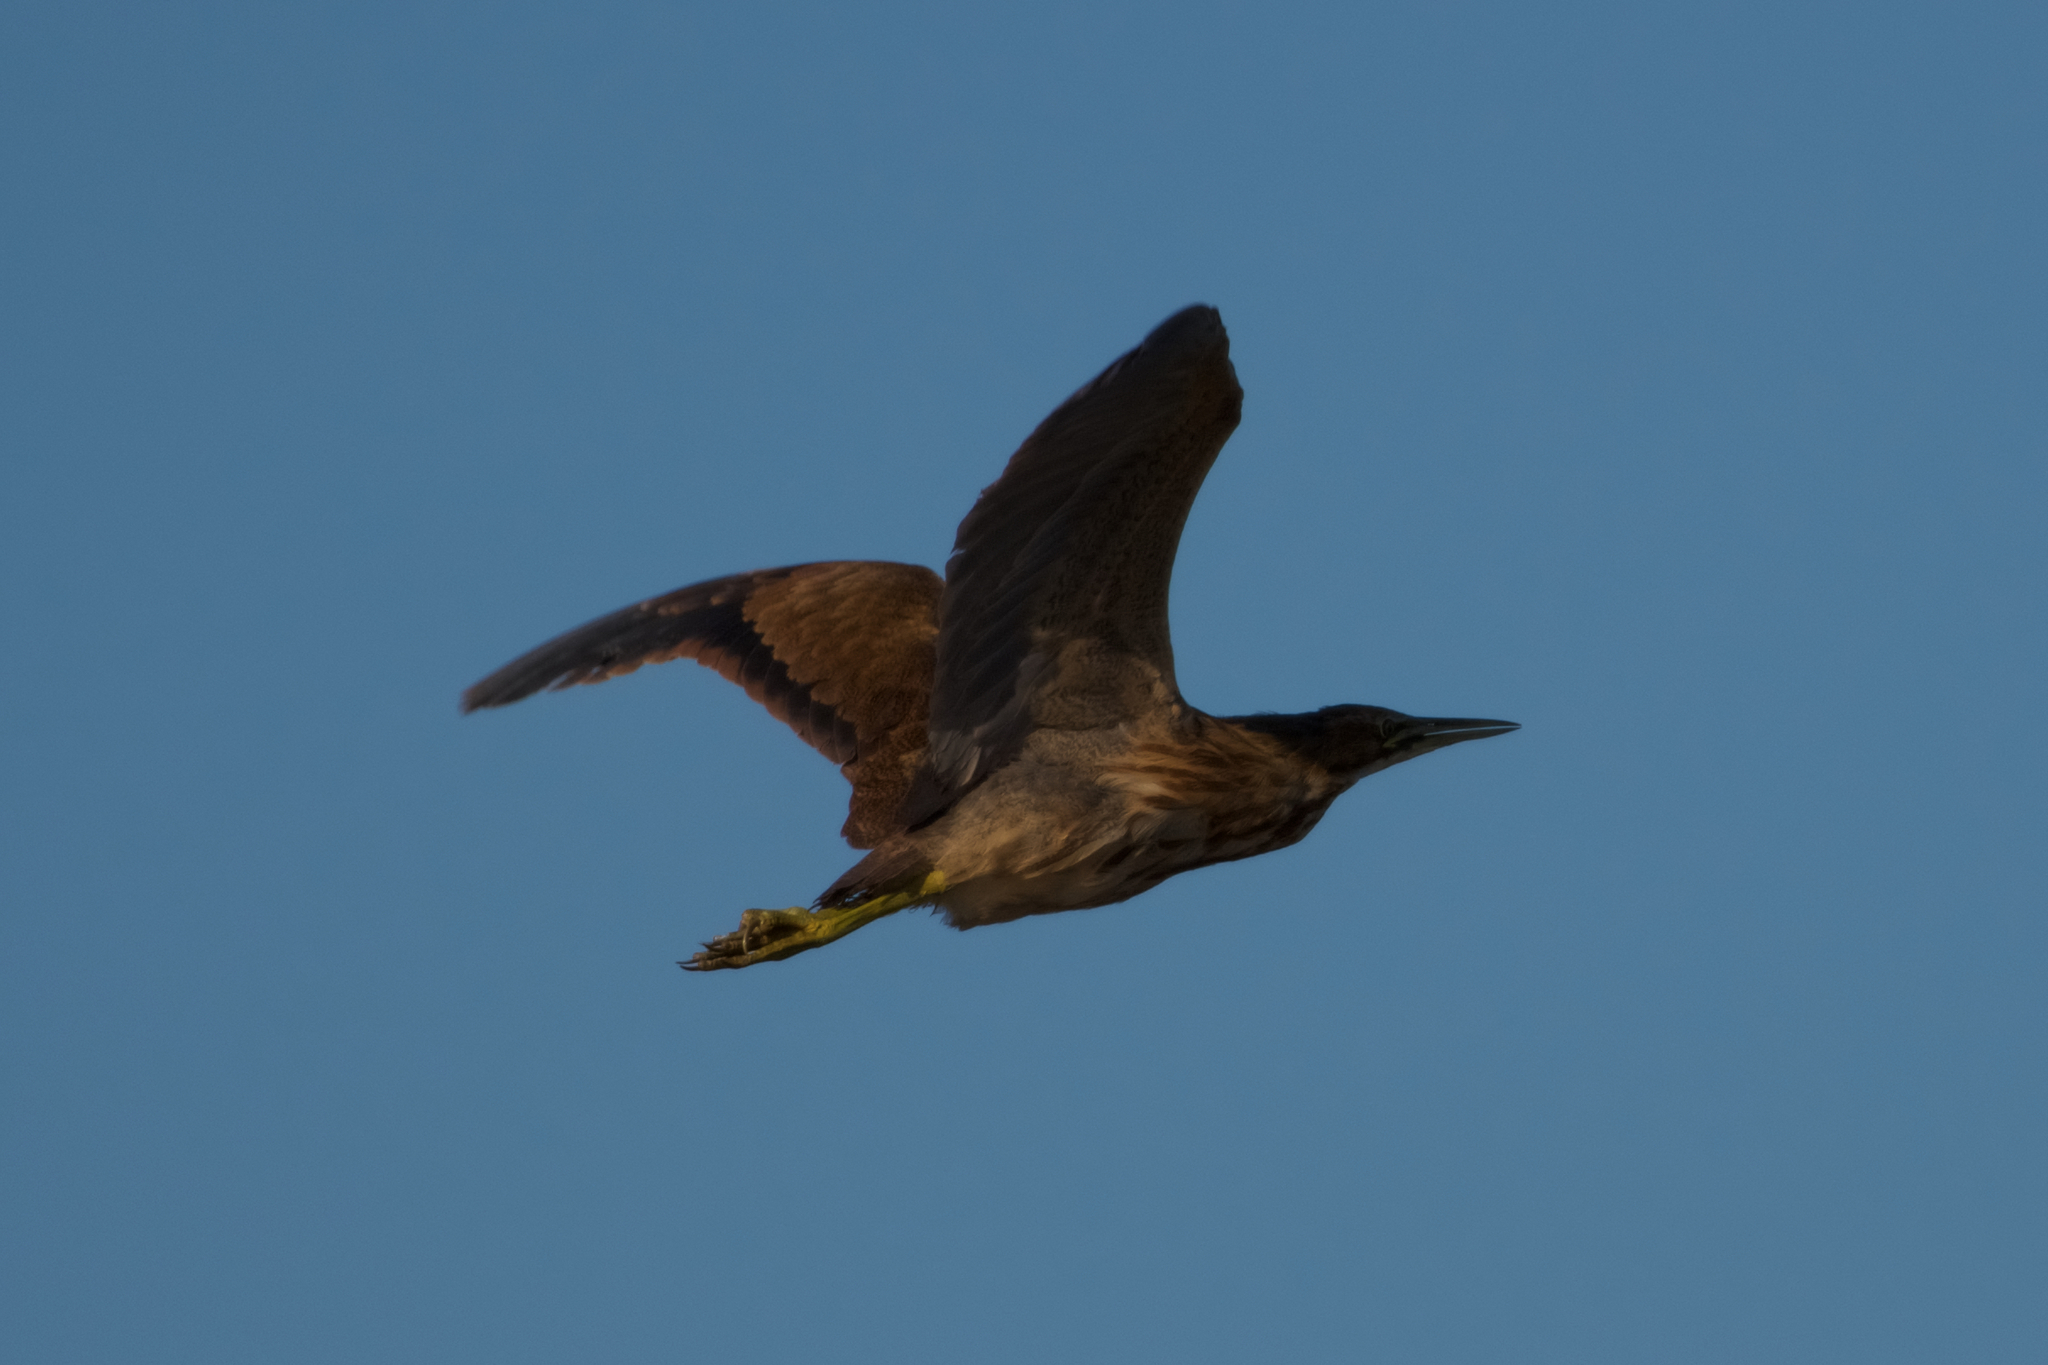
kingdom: Animalia
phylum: Chordata
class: Aves
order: Pelecaniformes
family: Ardeidae
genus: Botaurus
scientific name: Botaurus lentiginosus
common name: American bittern
